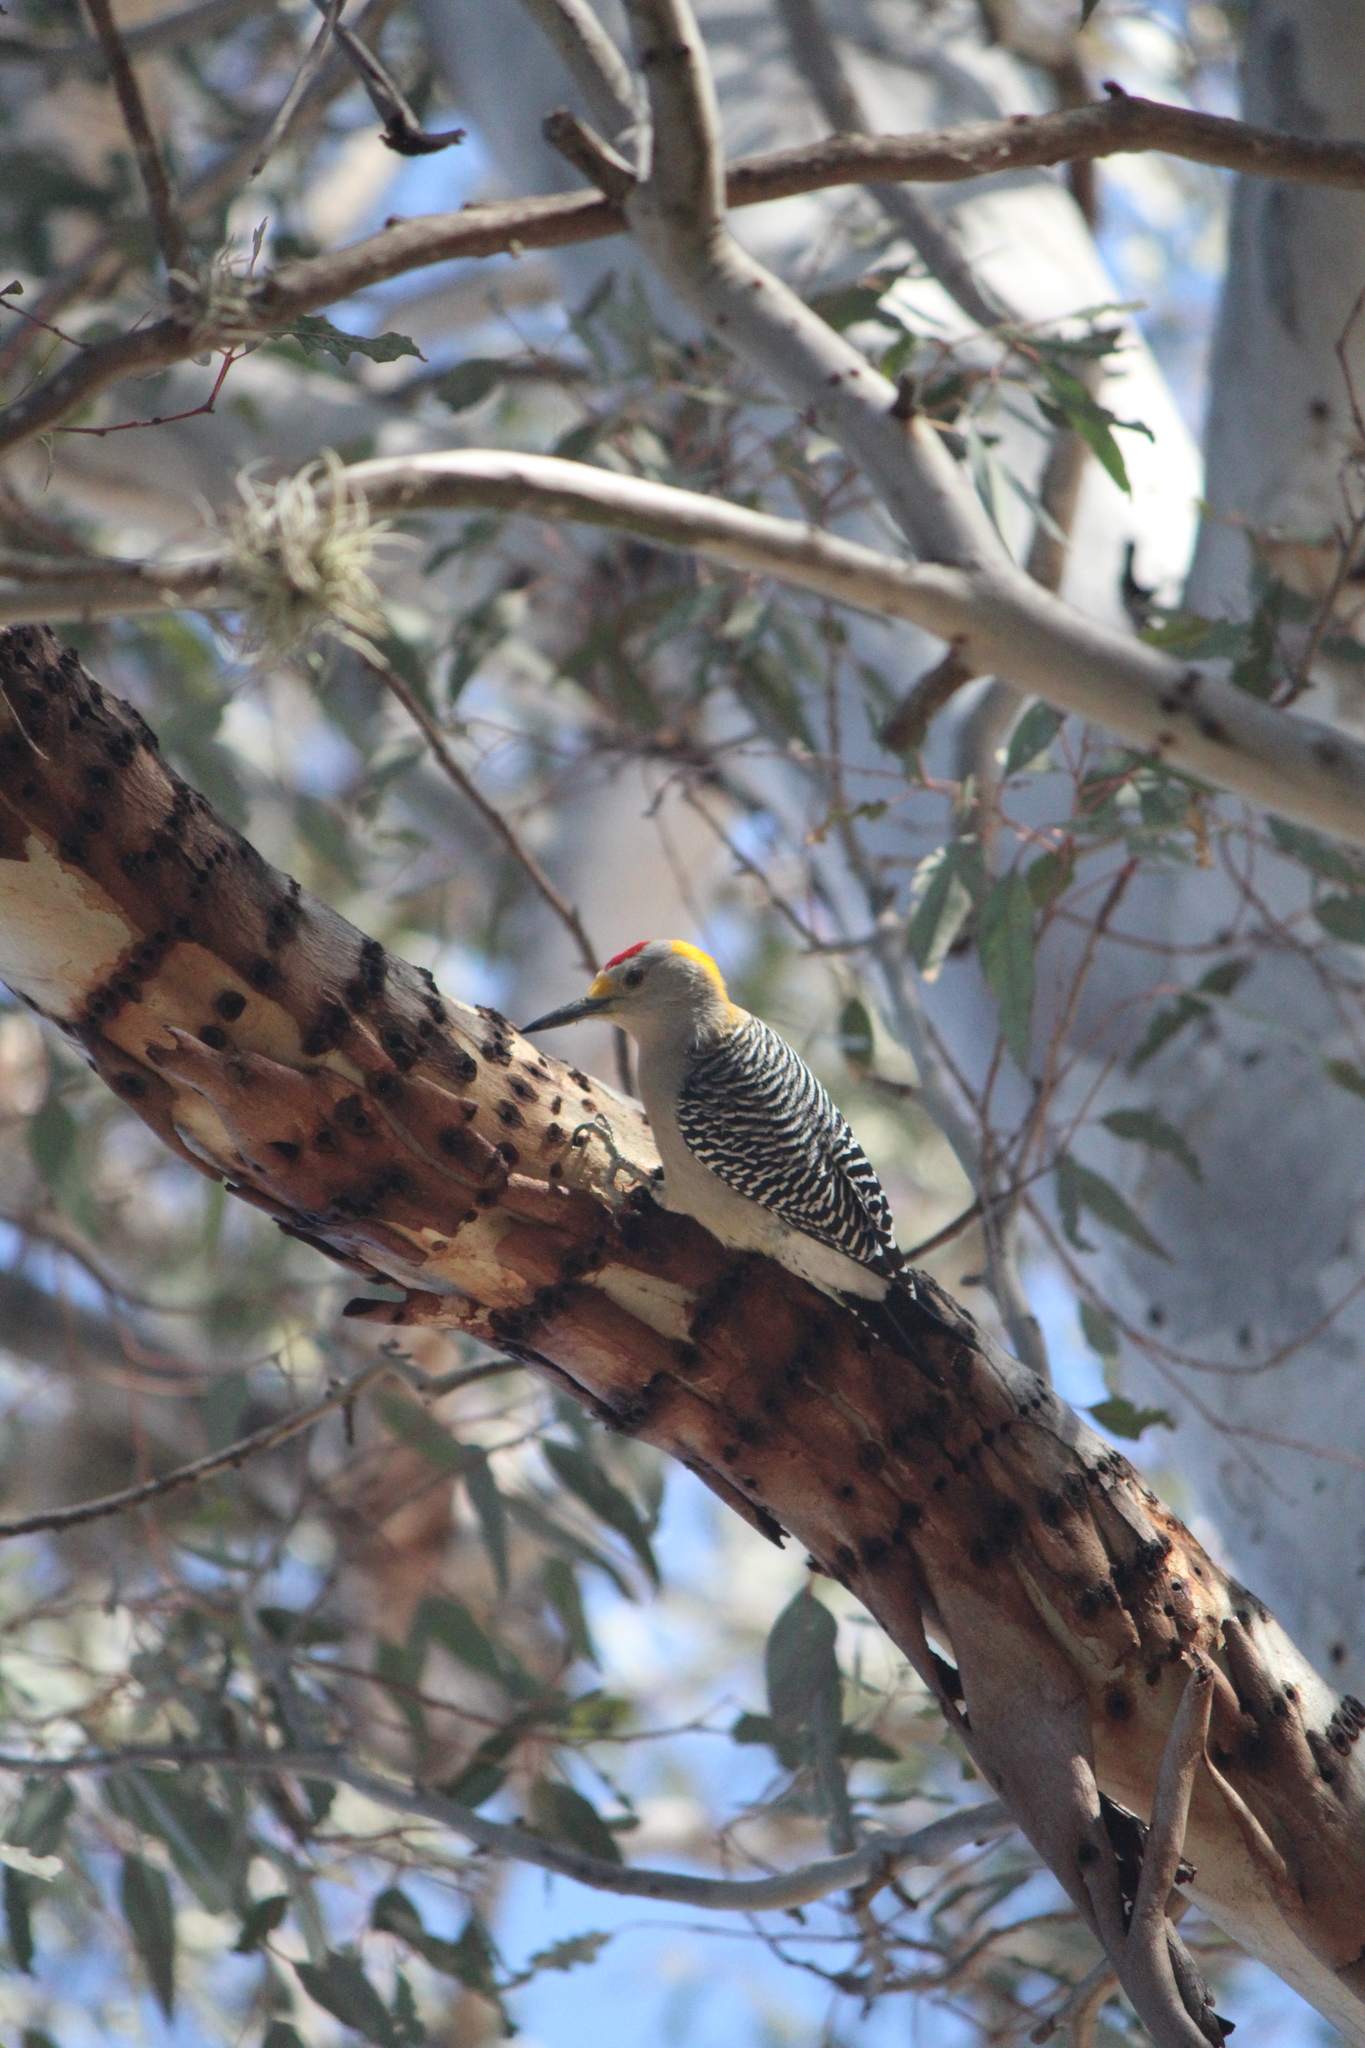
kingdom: Animalia
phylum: Chordata
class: Aves
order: Piciformes
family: Picidae
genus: Melanerpes
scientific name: Melanerpes aurifrons
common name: Golden-fronted woodpecker
